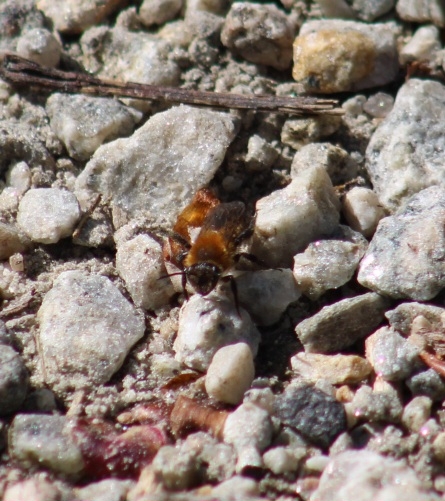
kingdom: Animalia
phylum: Arthropoda
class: Insecta
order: Hymenoptera
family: Andrenidae
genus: Andrena
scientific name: Andrena milwaukeensis
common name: Milwaukee mining bee
